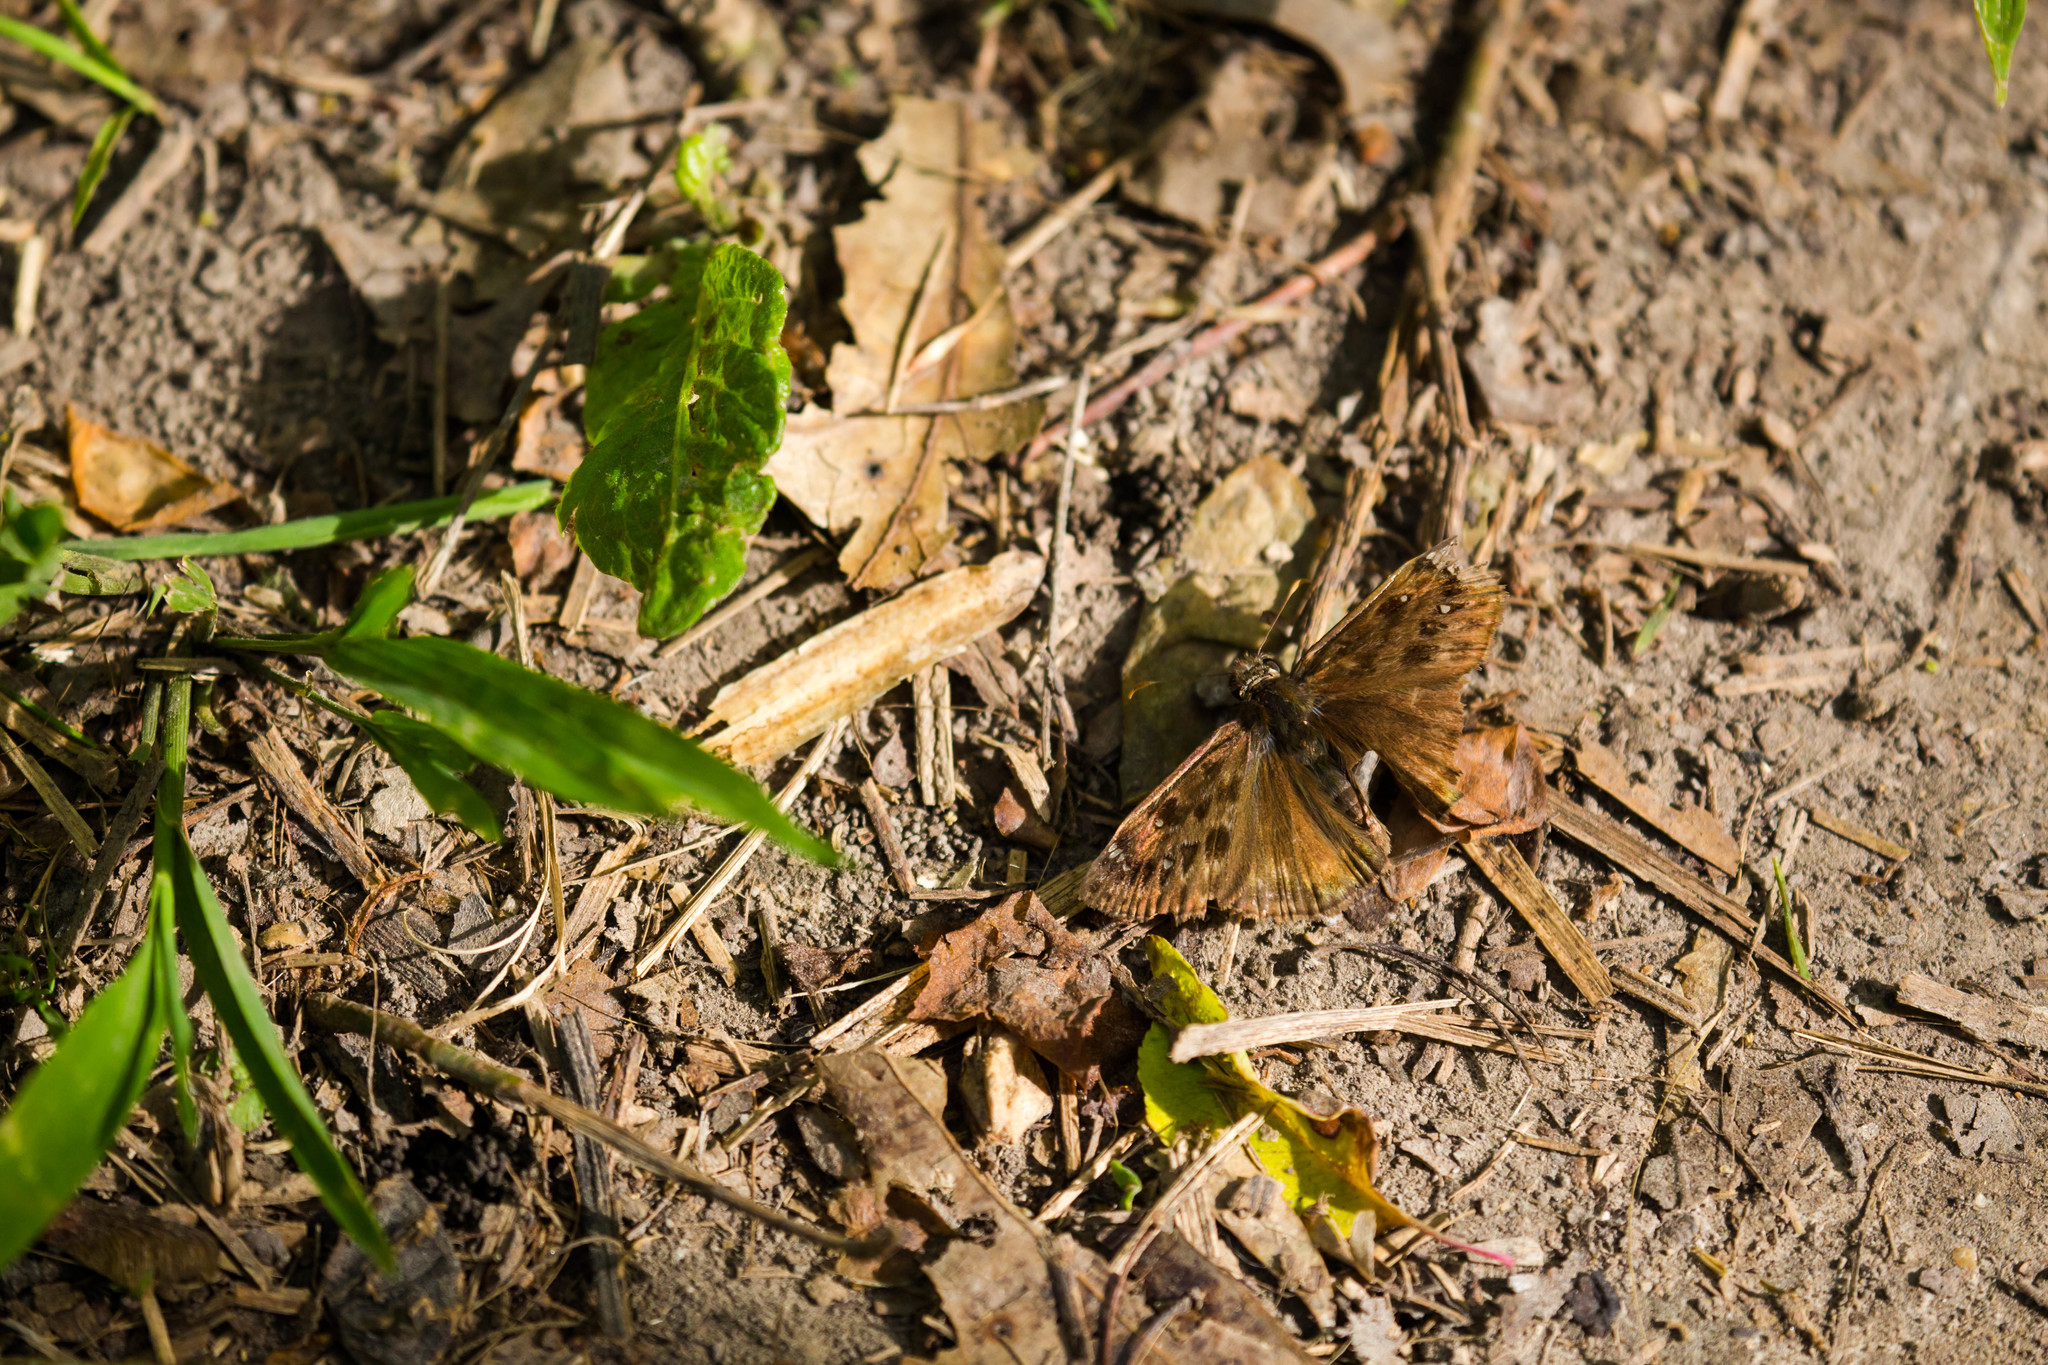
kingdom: Animalia
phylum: Arthropoda
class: Insecta
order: Lepidoptera
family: Hesperiidae
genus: Erynnis
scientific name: Erynnis horatius
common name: Horace's duskywing
